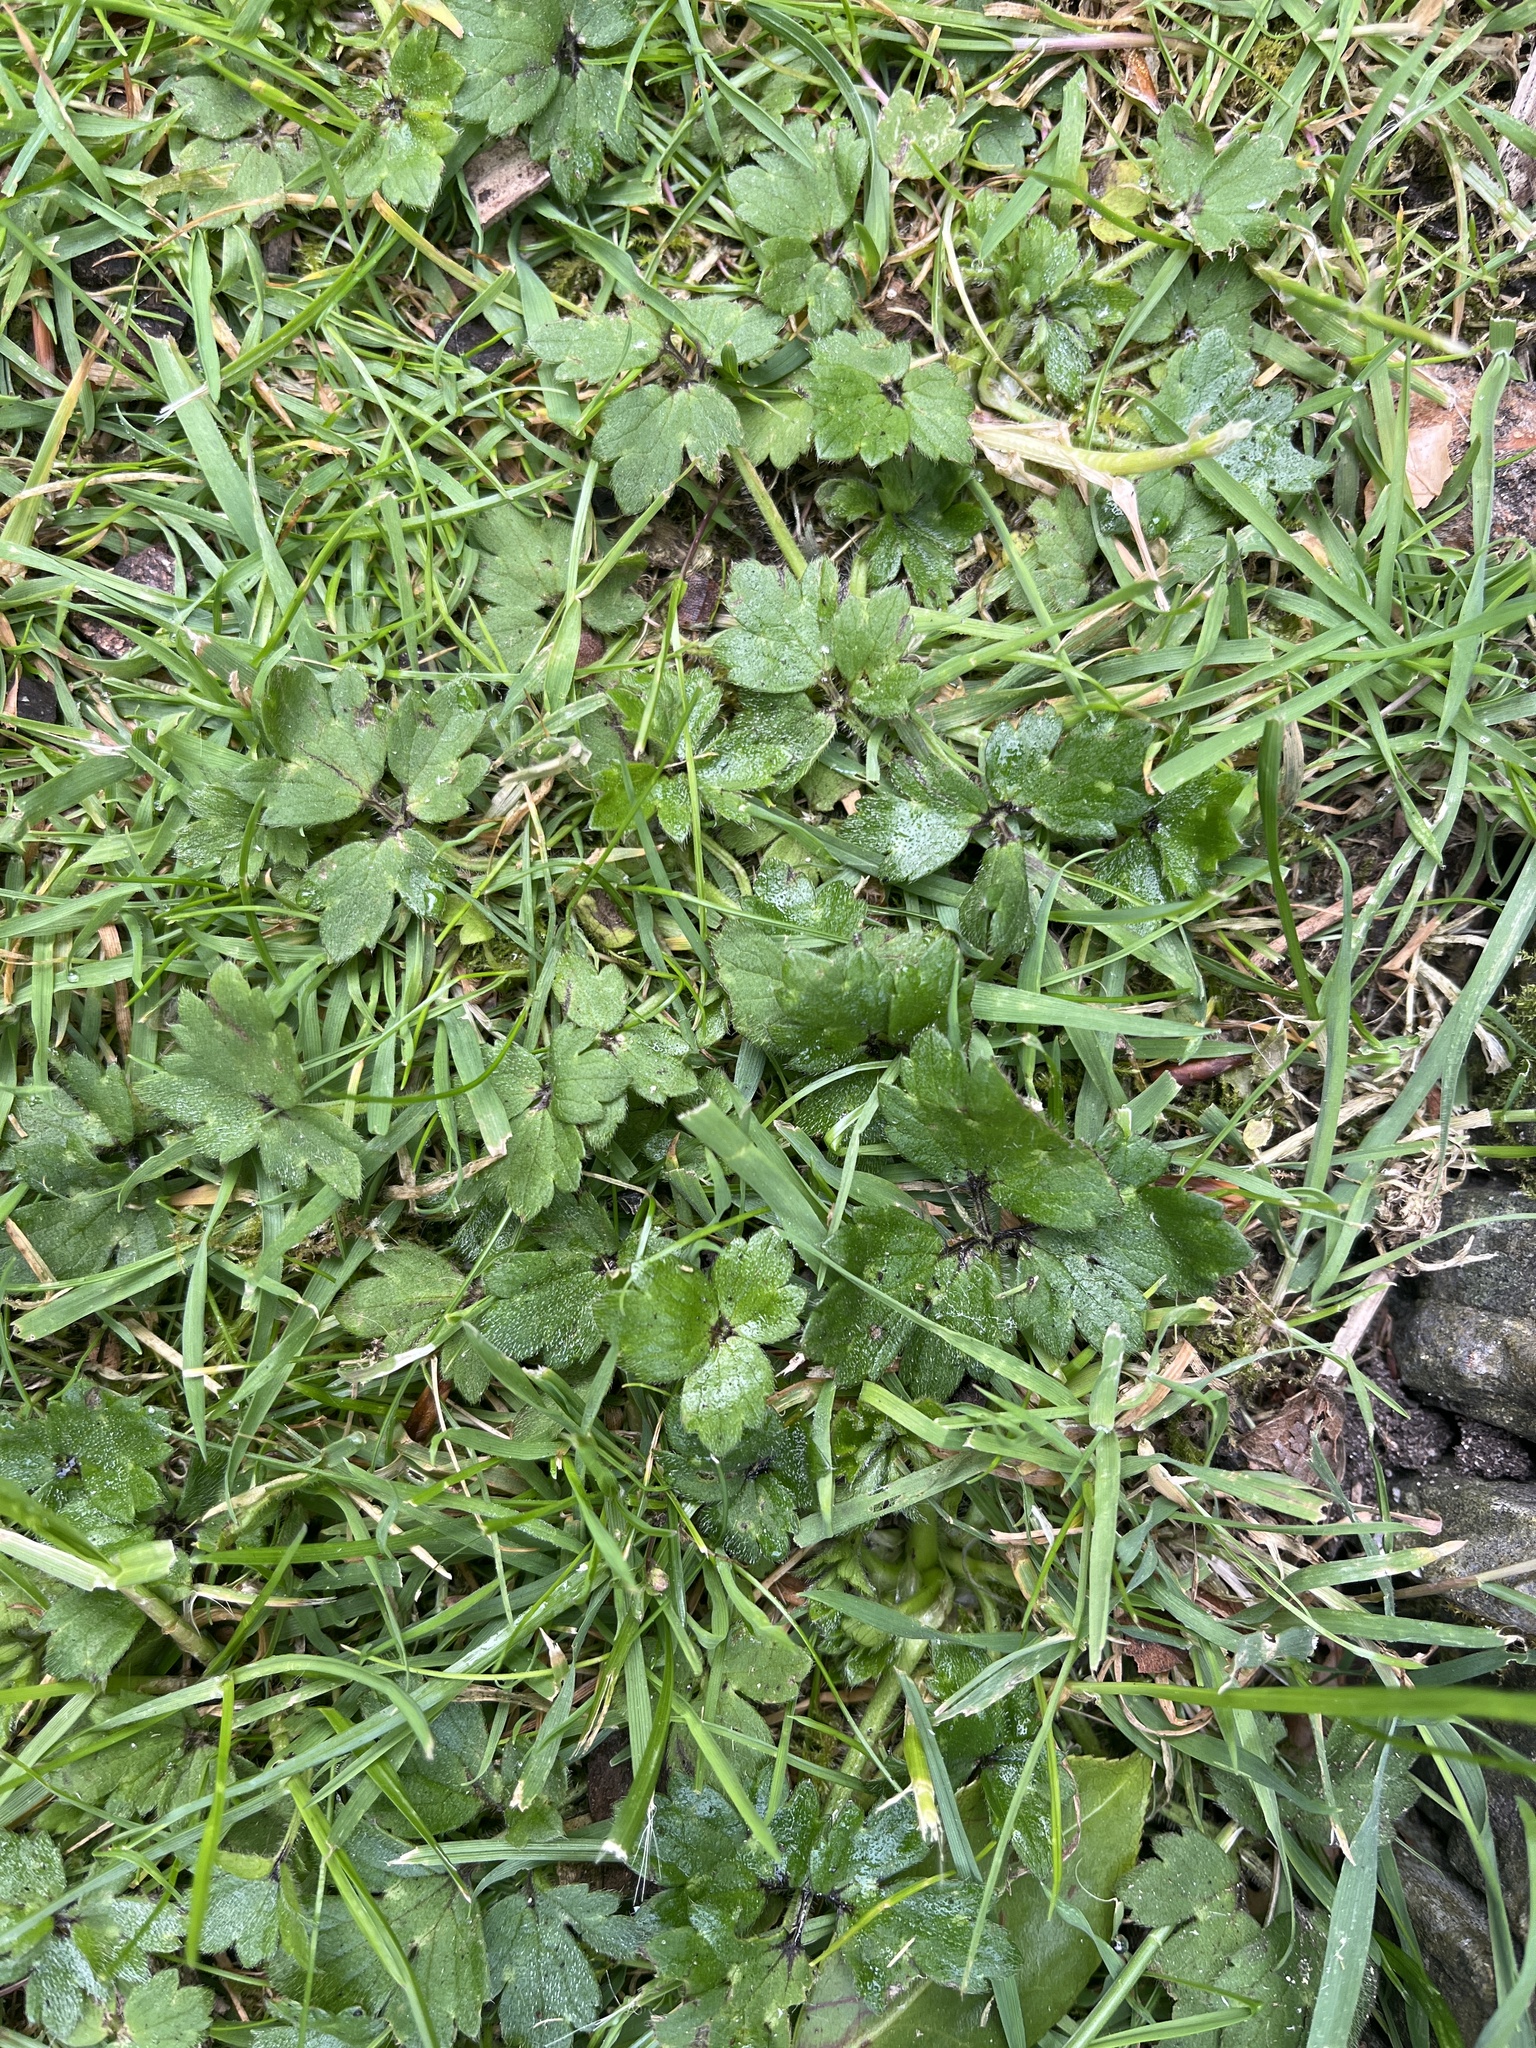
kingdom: Plantae
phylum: Tracheophyta
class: Magnoliopsida
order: Ranunculales
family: Ranunculaceae
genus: Ranunculus
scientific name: Ranunculus repens
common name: Creeping buttercup
